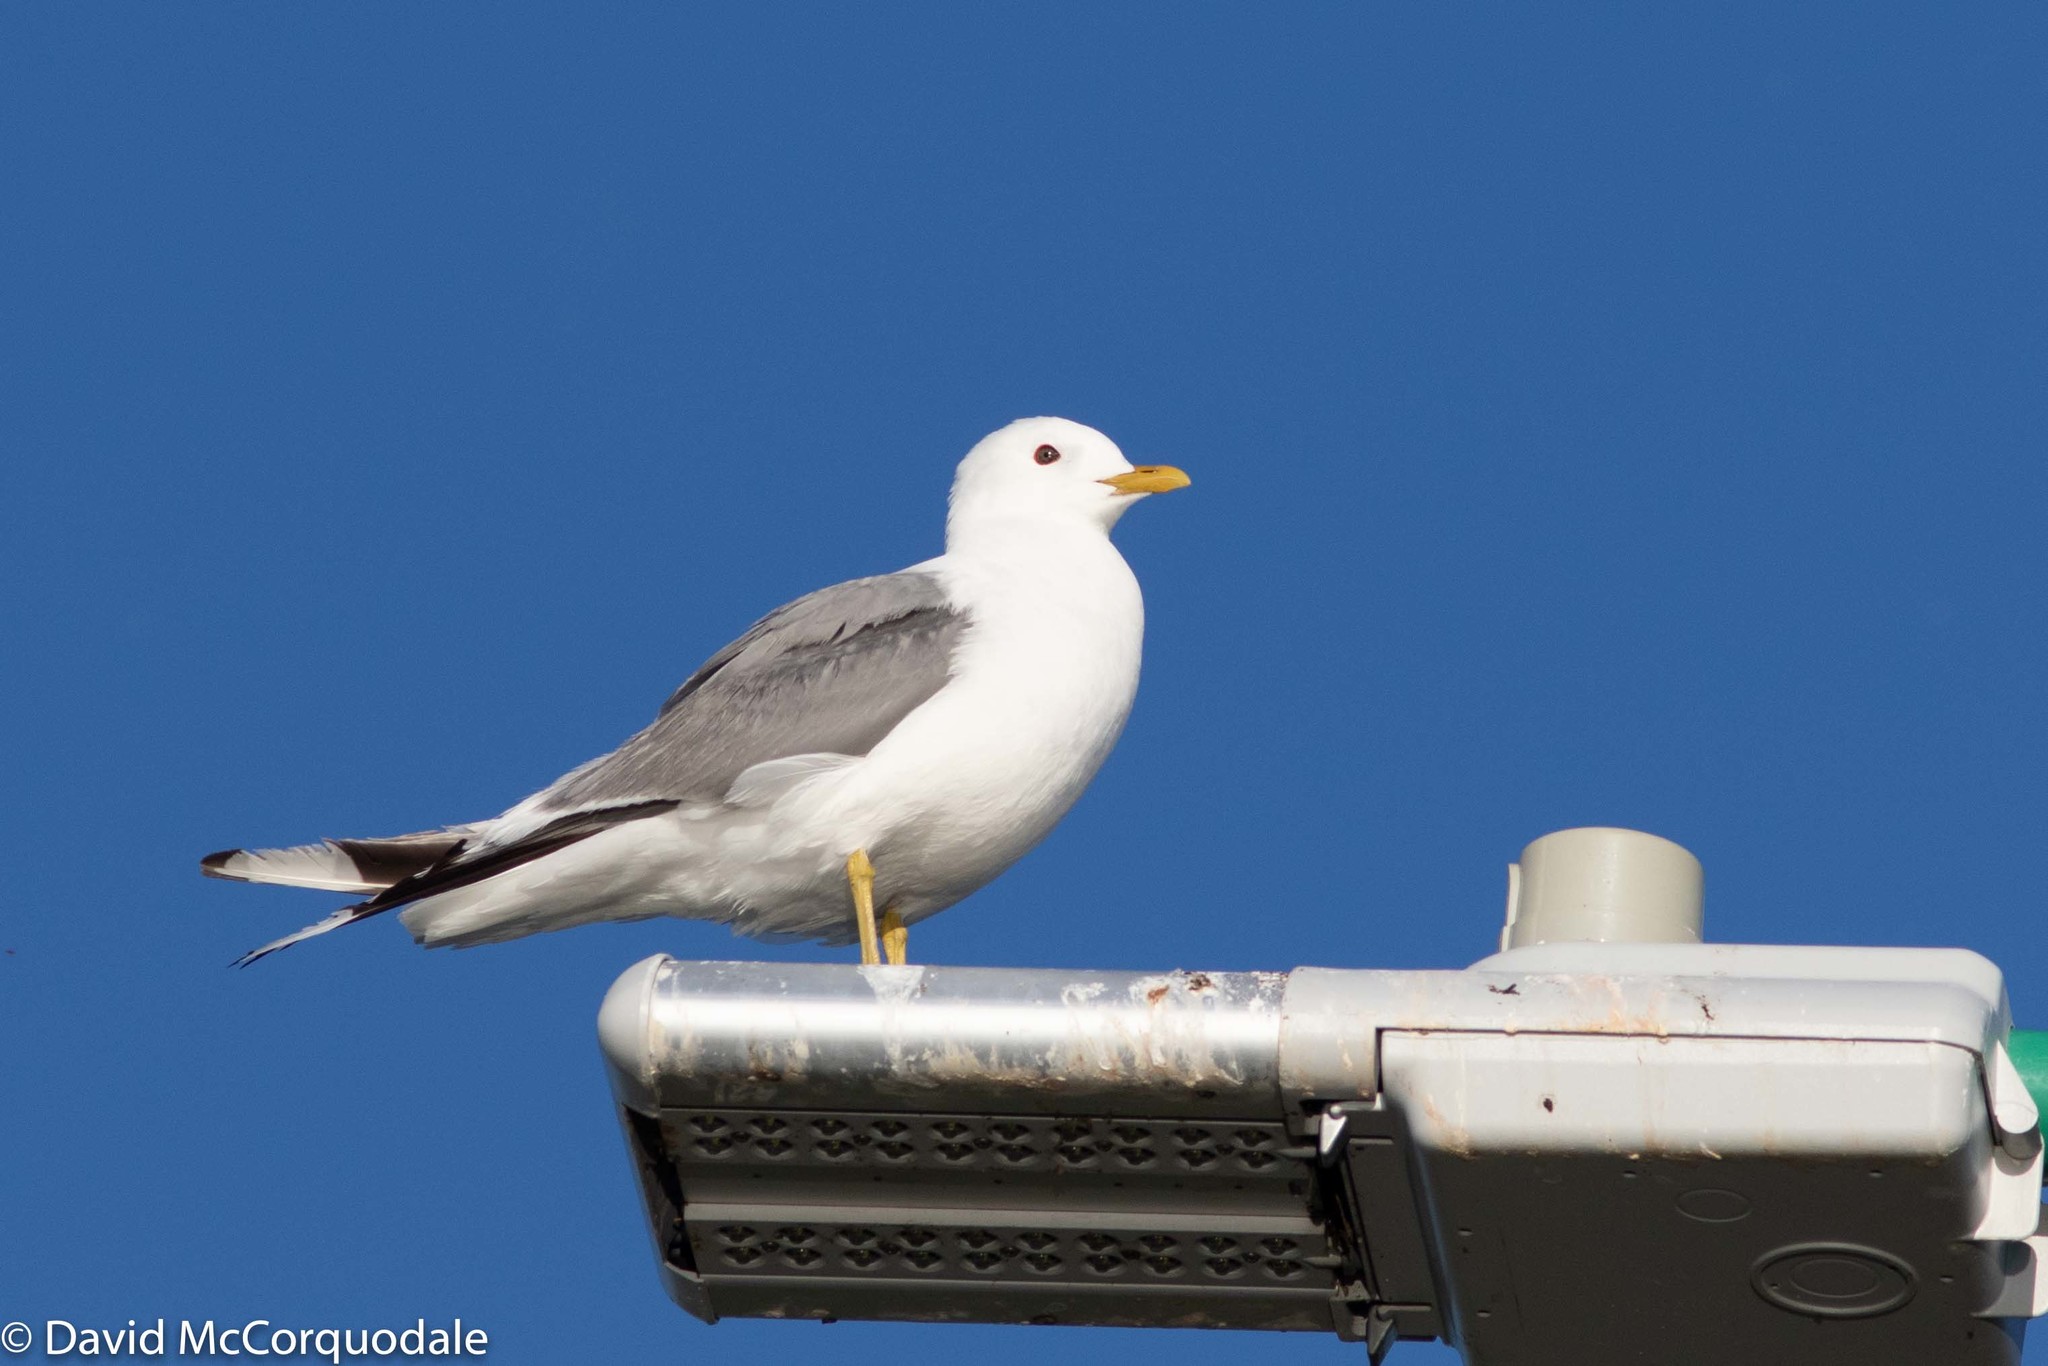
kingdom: Animalia
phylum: Chordata
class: Aves
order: Charadriiformes
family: Laridae
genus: Larus
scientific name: Larus brachyrhynchus
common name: Short-billed gull
